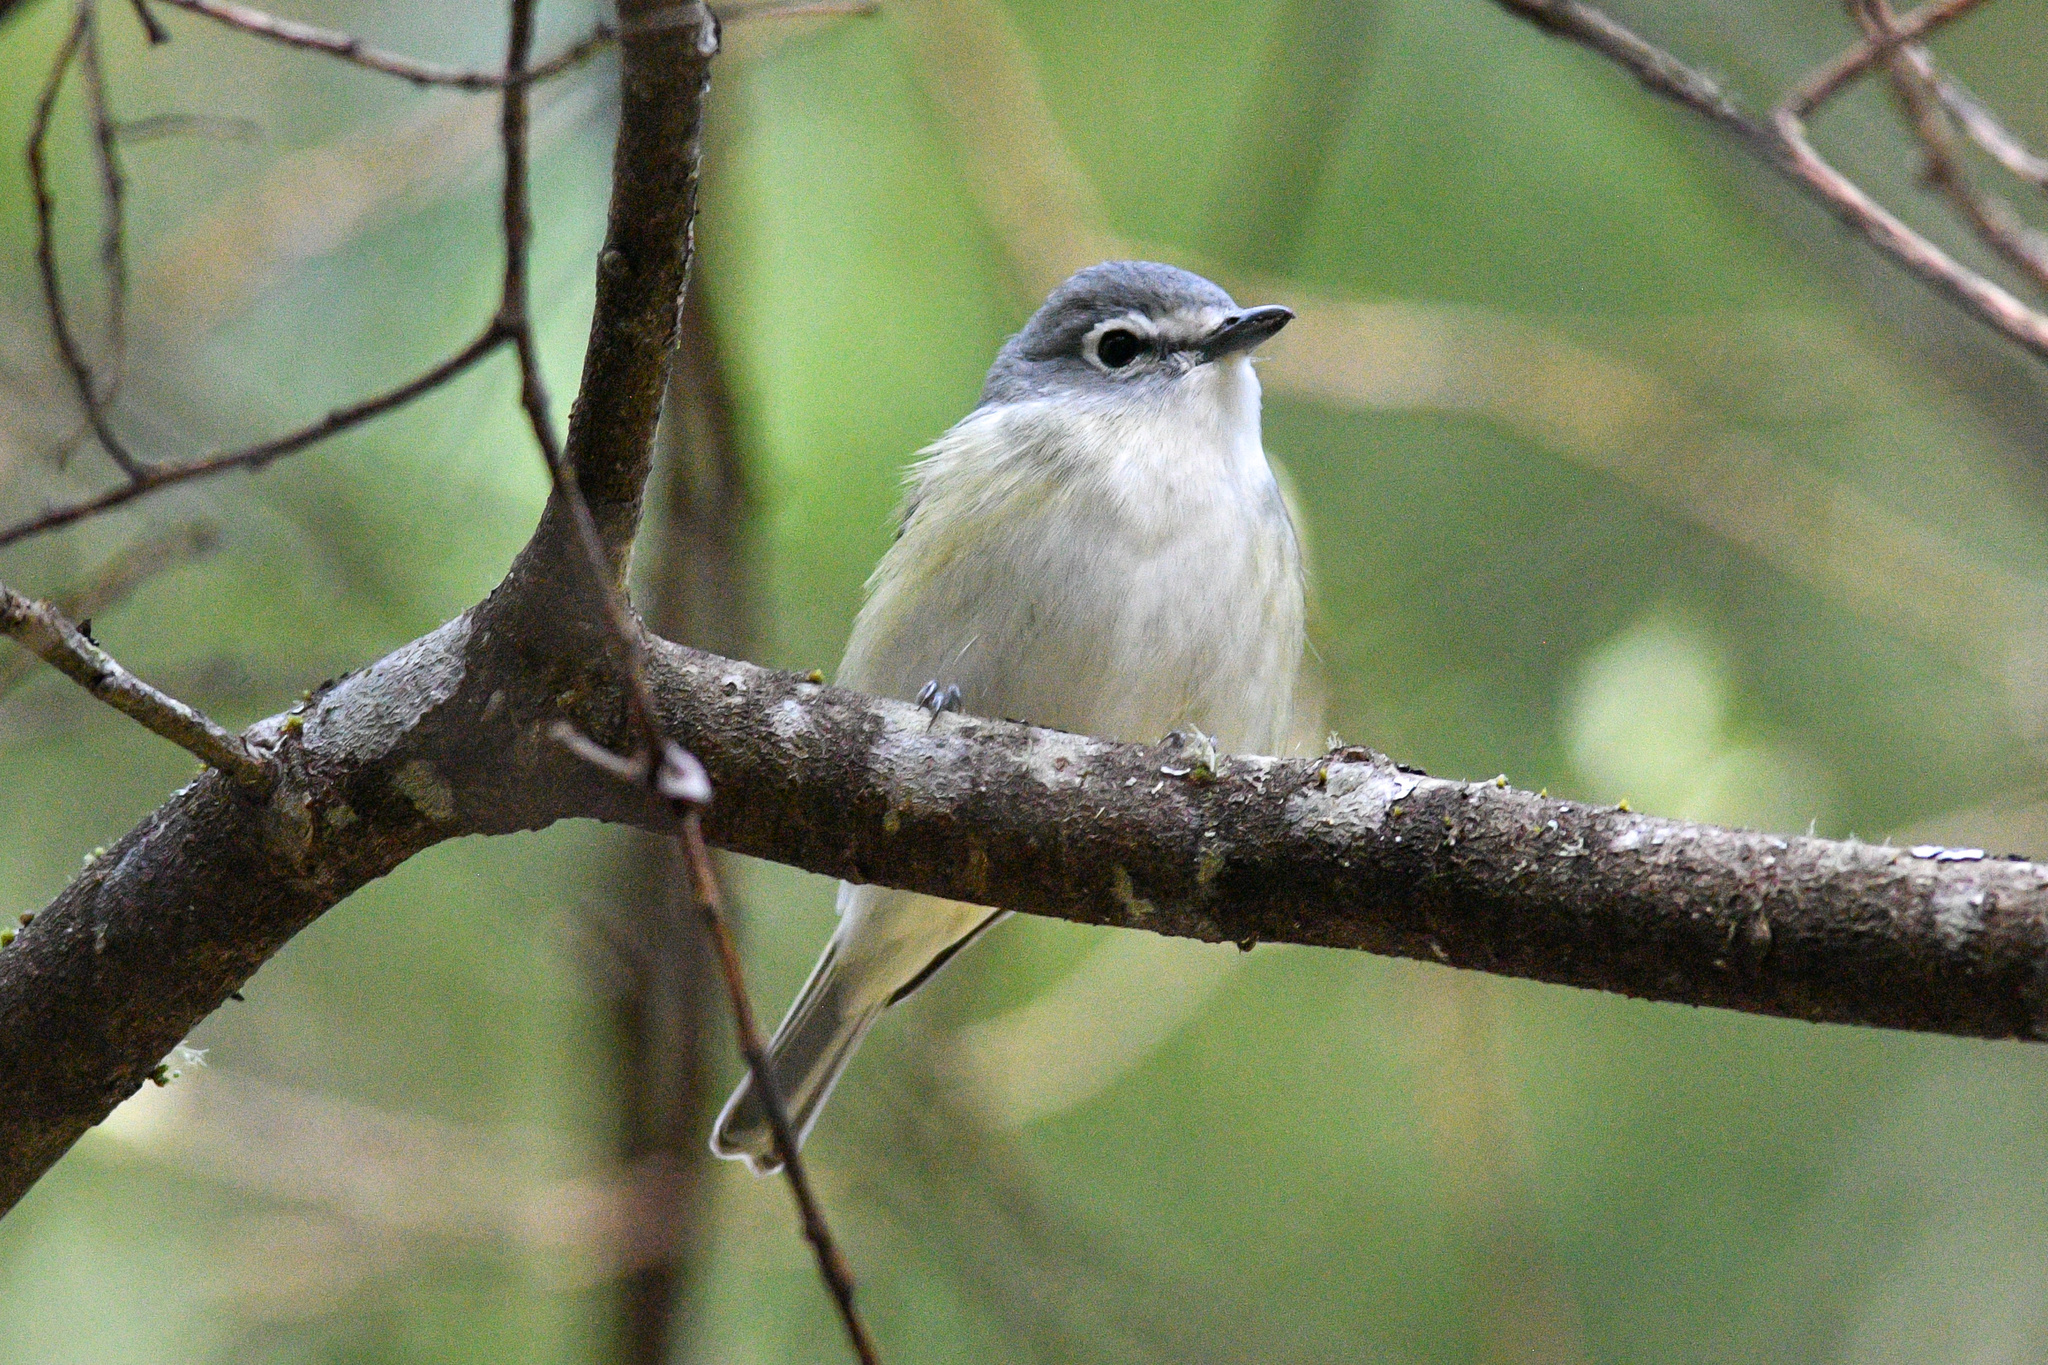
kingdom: Animalia
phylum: Chordata
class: Aves
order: Passeriformes
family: Vireonidae
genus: Vireo
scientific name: Vireo cassinii
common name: Cassin's vireo
